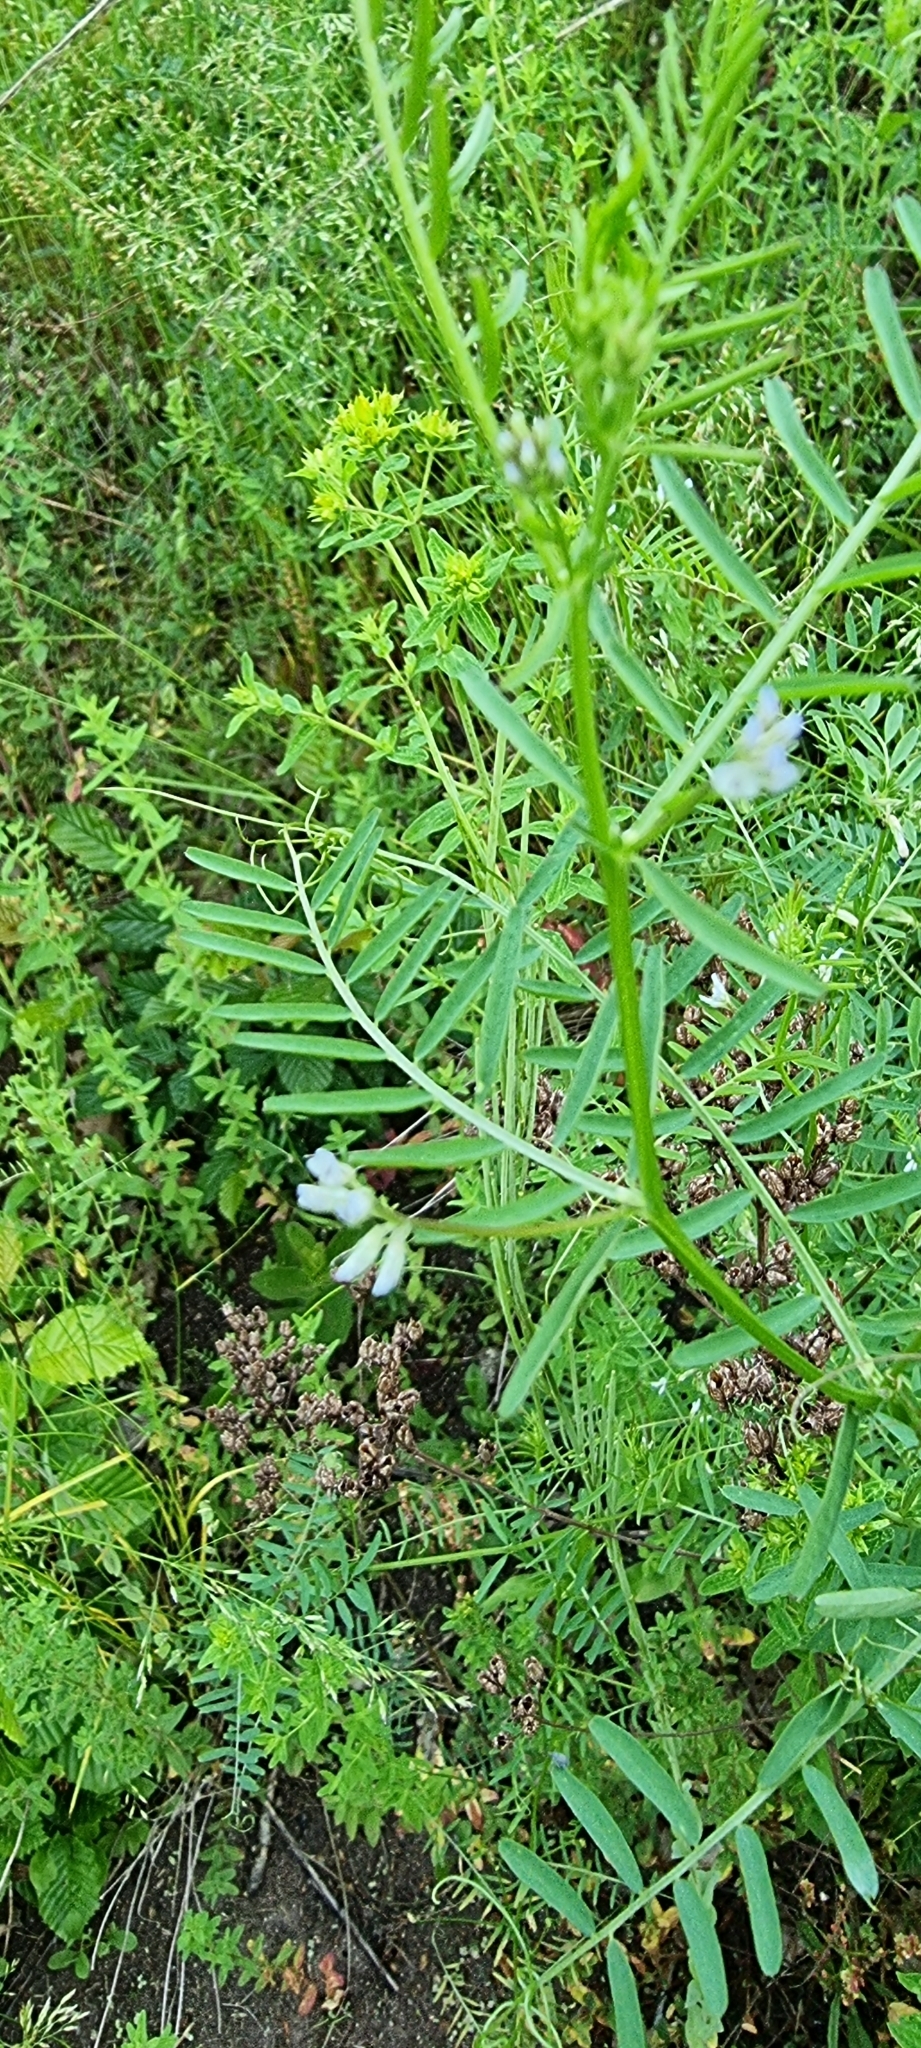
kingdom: Plantae
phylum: Tracheophyta
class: Magnoliopsida
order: Fabales
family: Fabaceae
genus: Vicia
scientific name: Vicia hirsuta
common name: Tiny vetch
